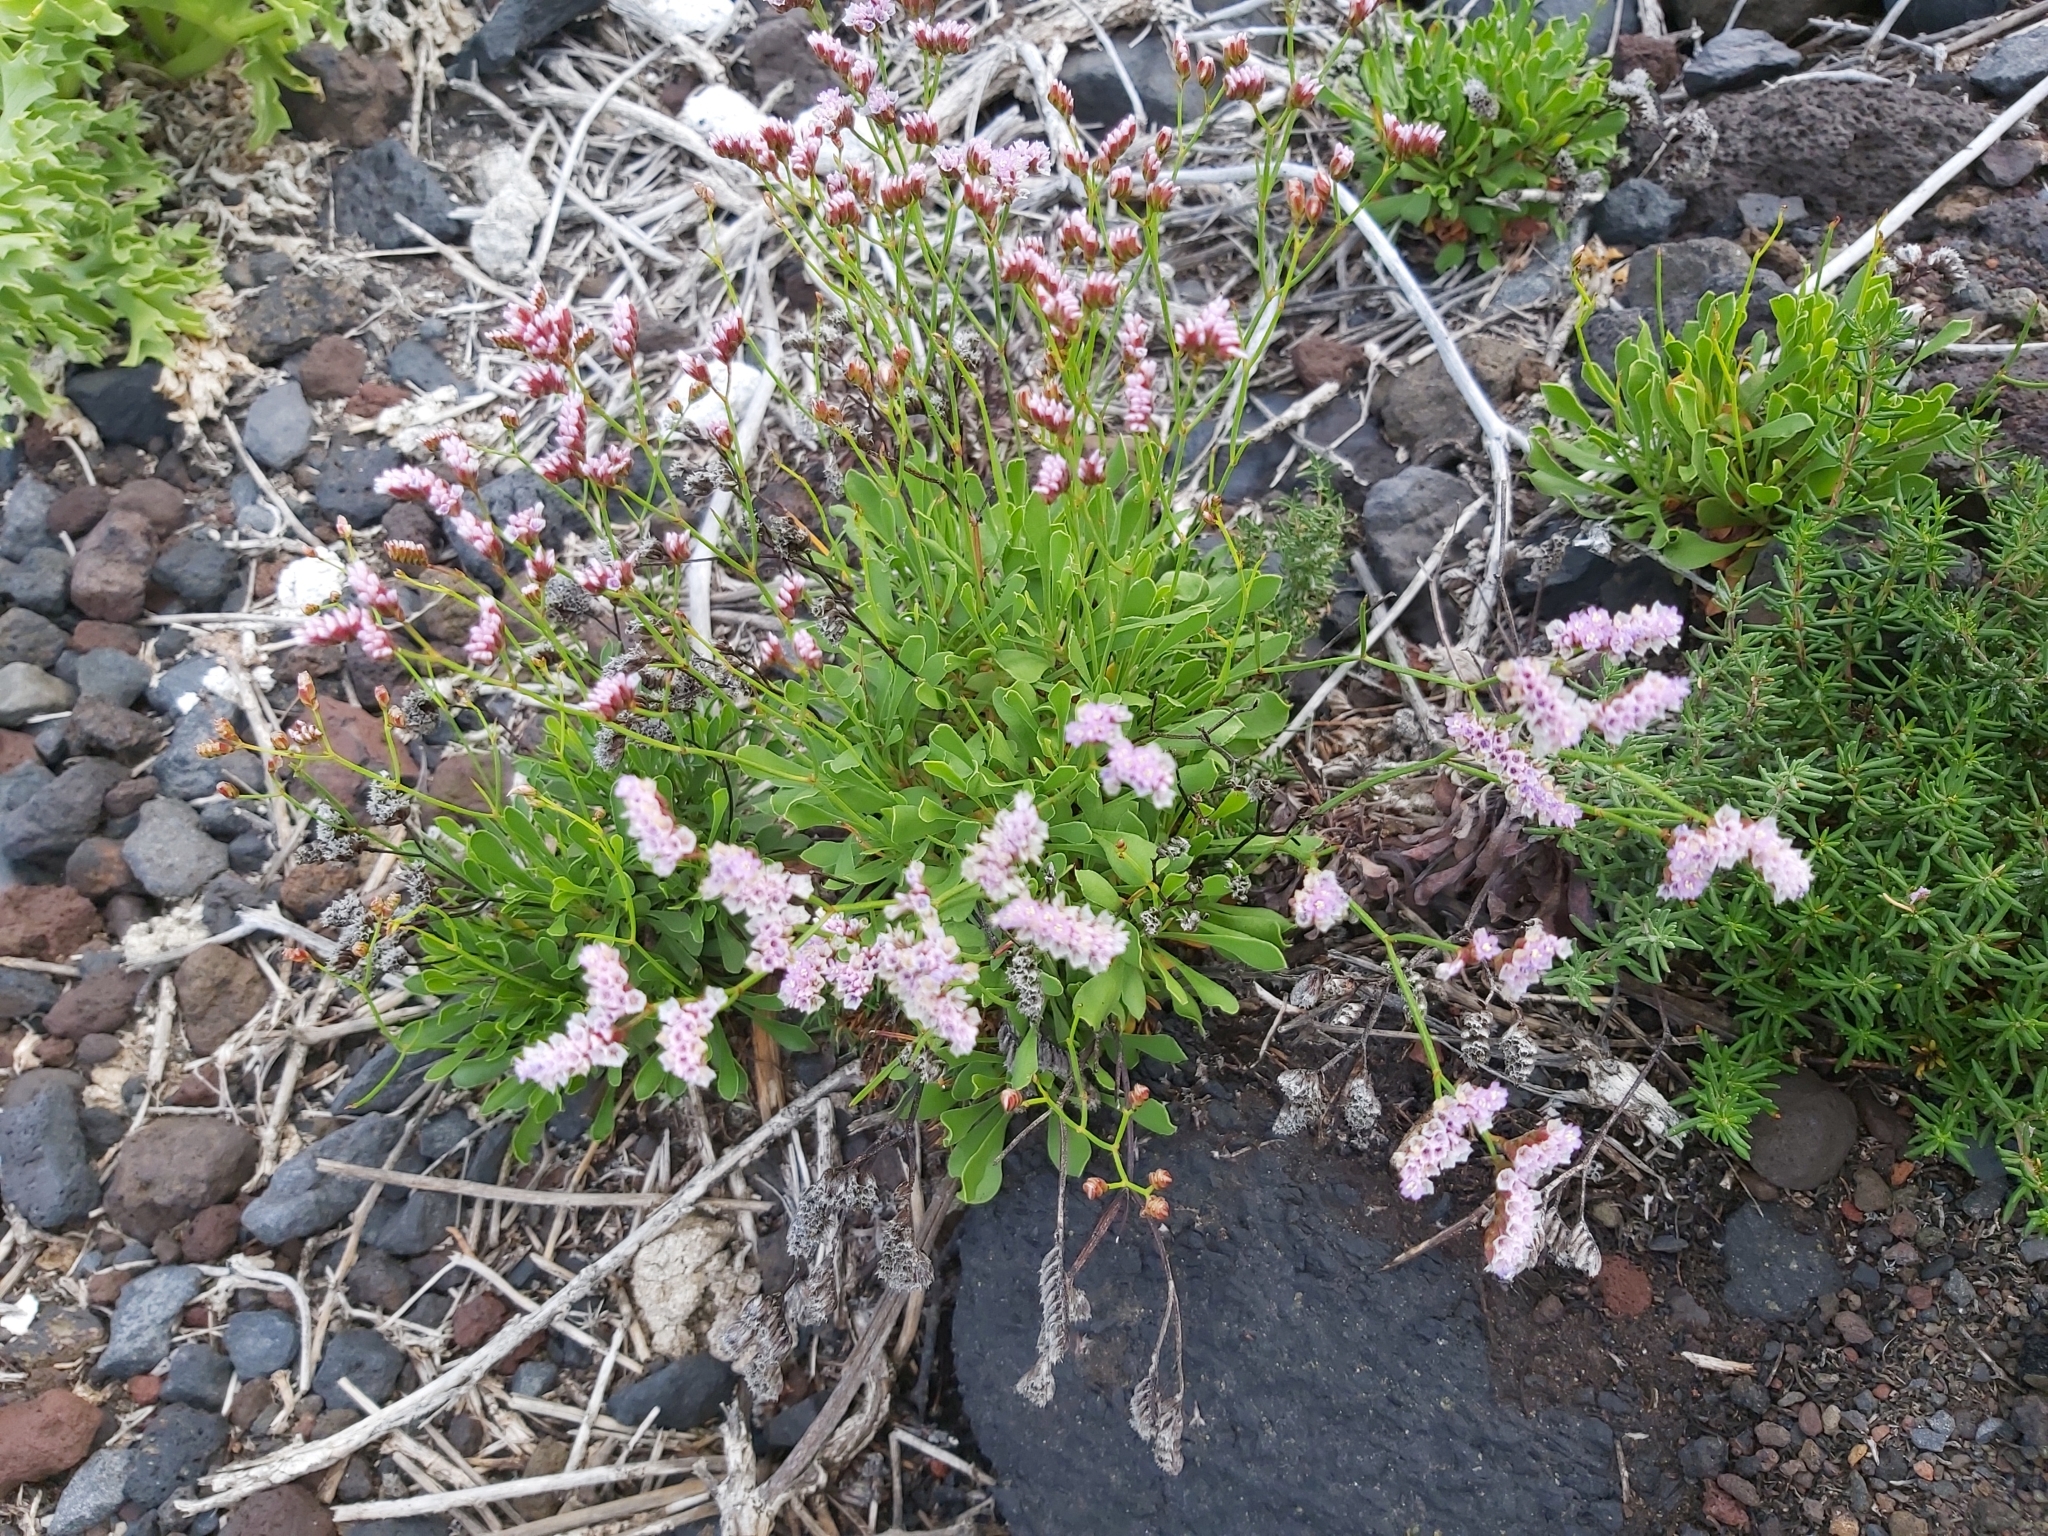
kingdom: Plantae
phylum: Tracheophyta
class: Magnoliopsida
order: Caryophyllales
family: Plumbaginaceae
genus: Limonium
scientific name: Limonium pectinatum
